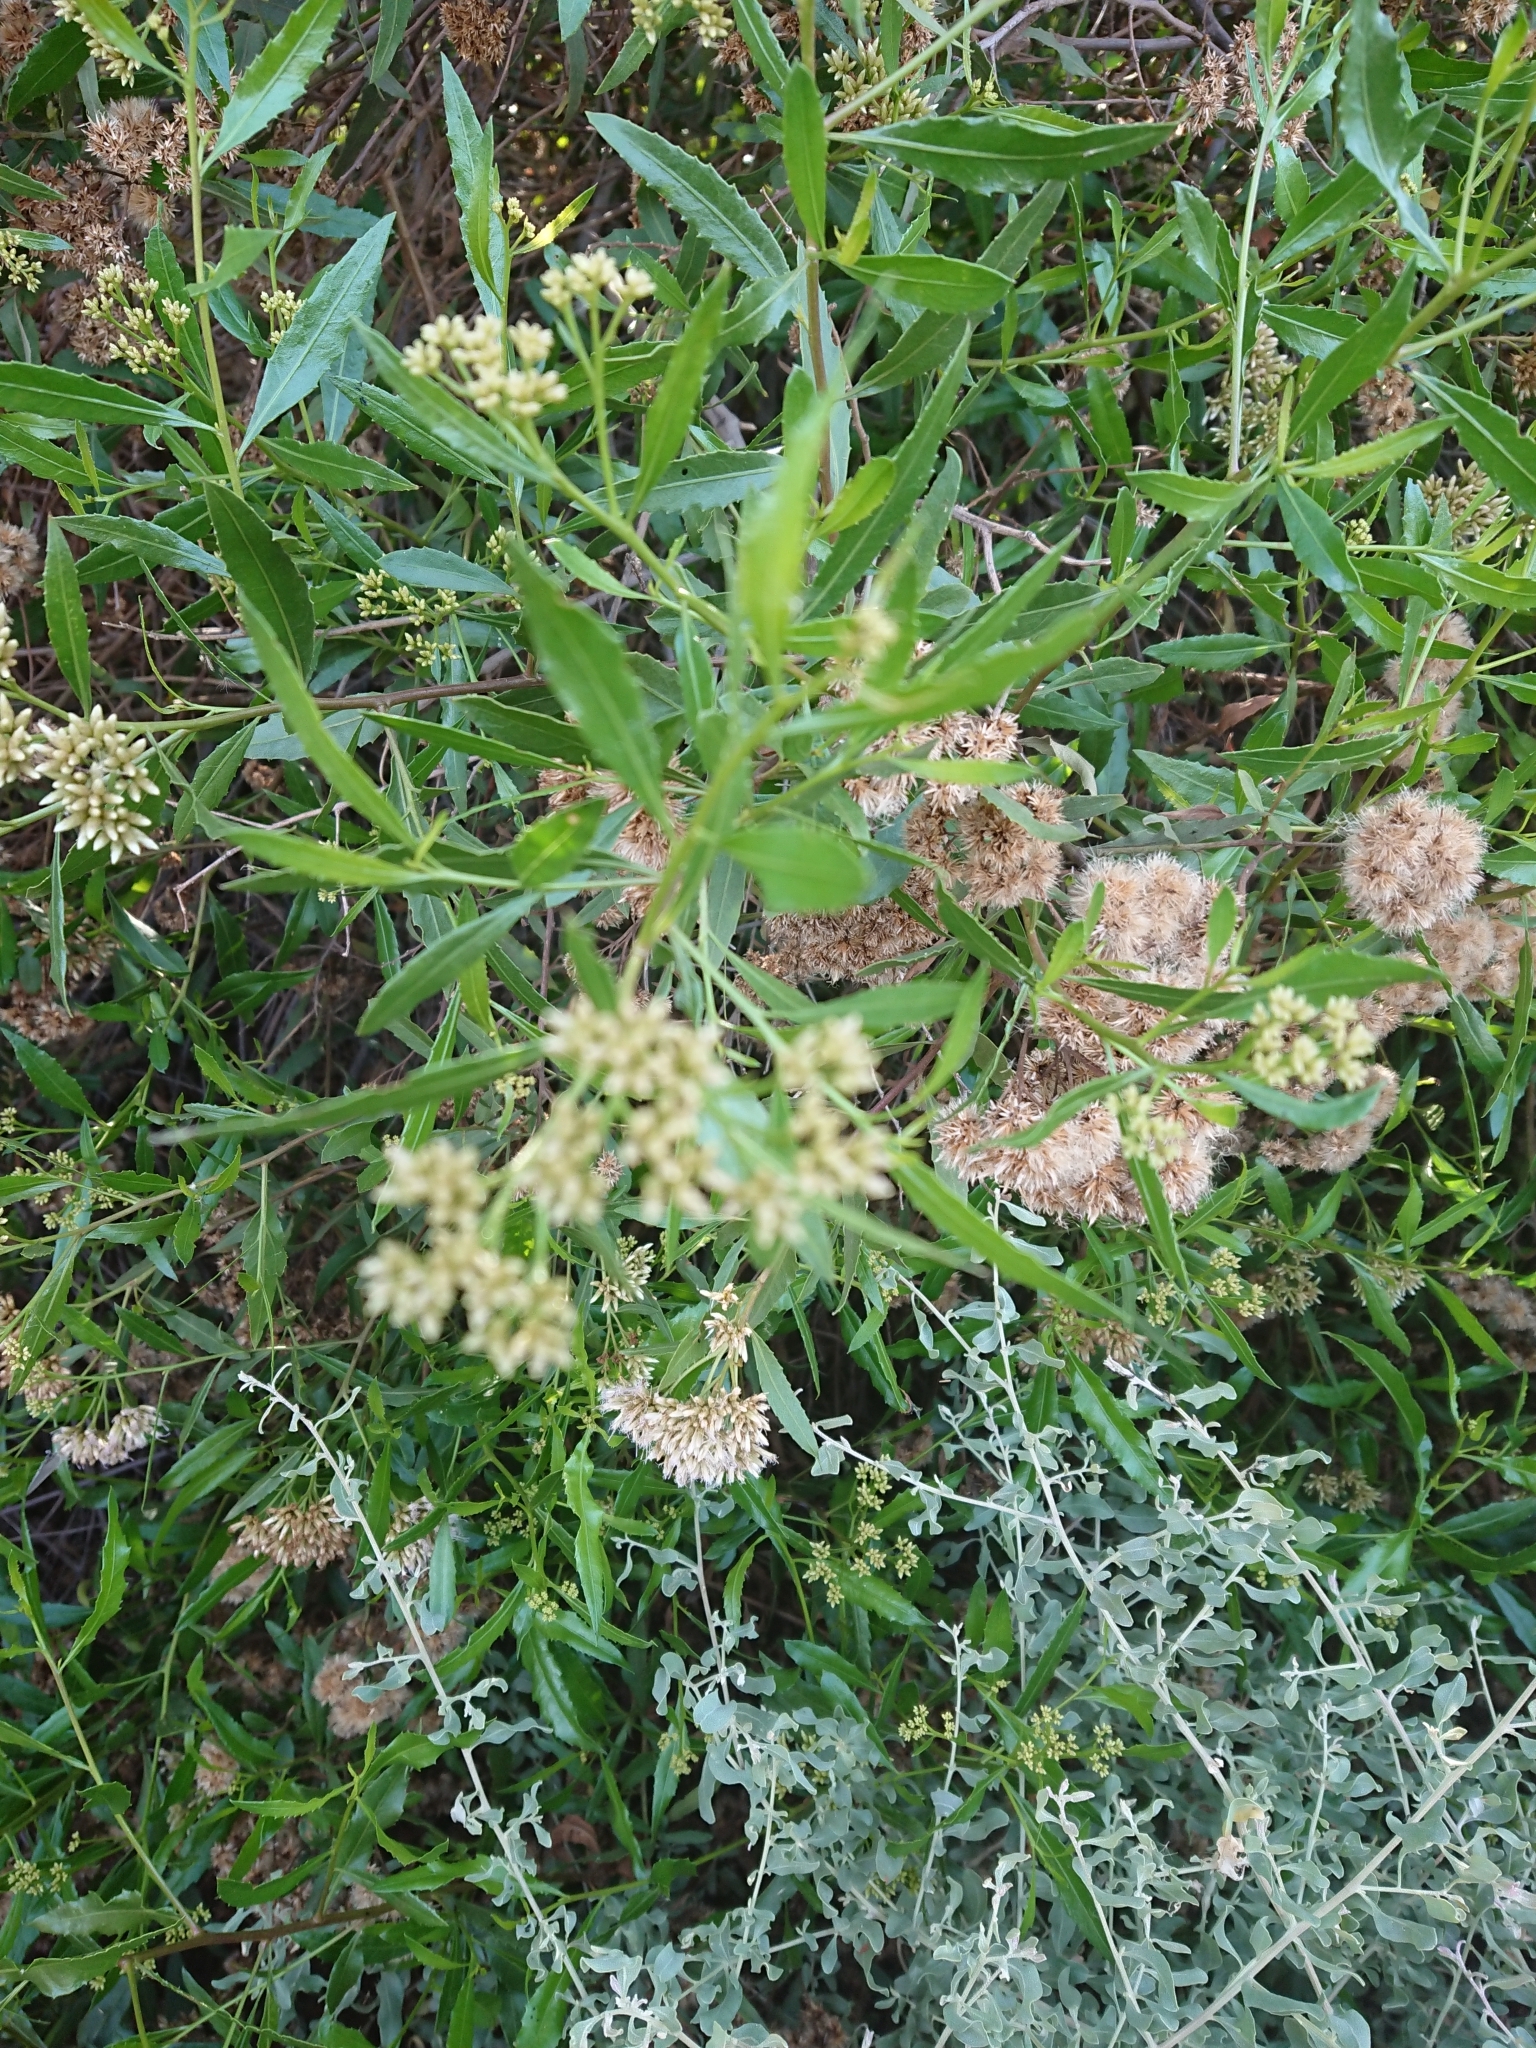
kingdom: Plantae
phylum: Tracheophyta
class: Magnoliopsida
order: Asterales
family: Asteraceae
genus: Baccharis
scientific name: Baccharis salicifolia
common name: Sticky baccharis
